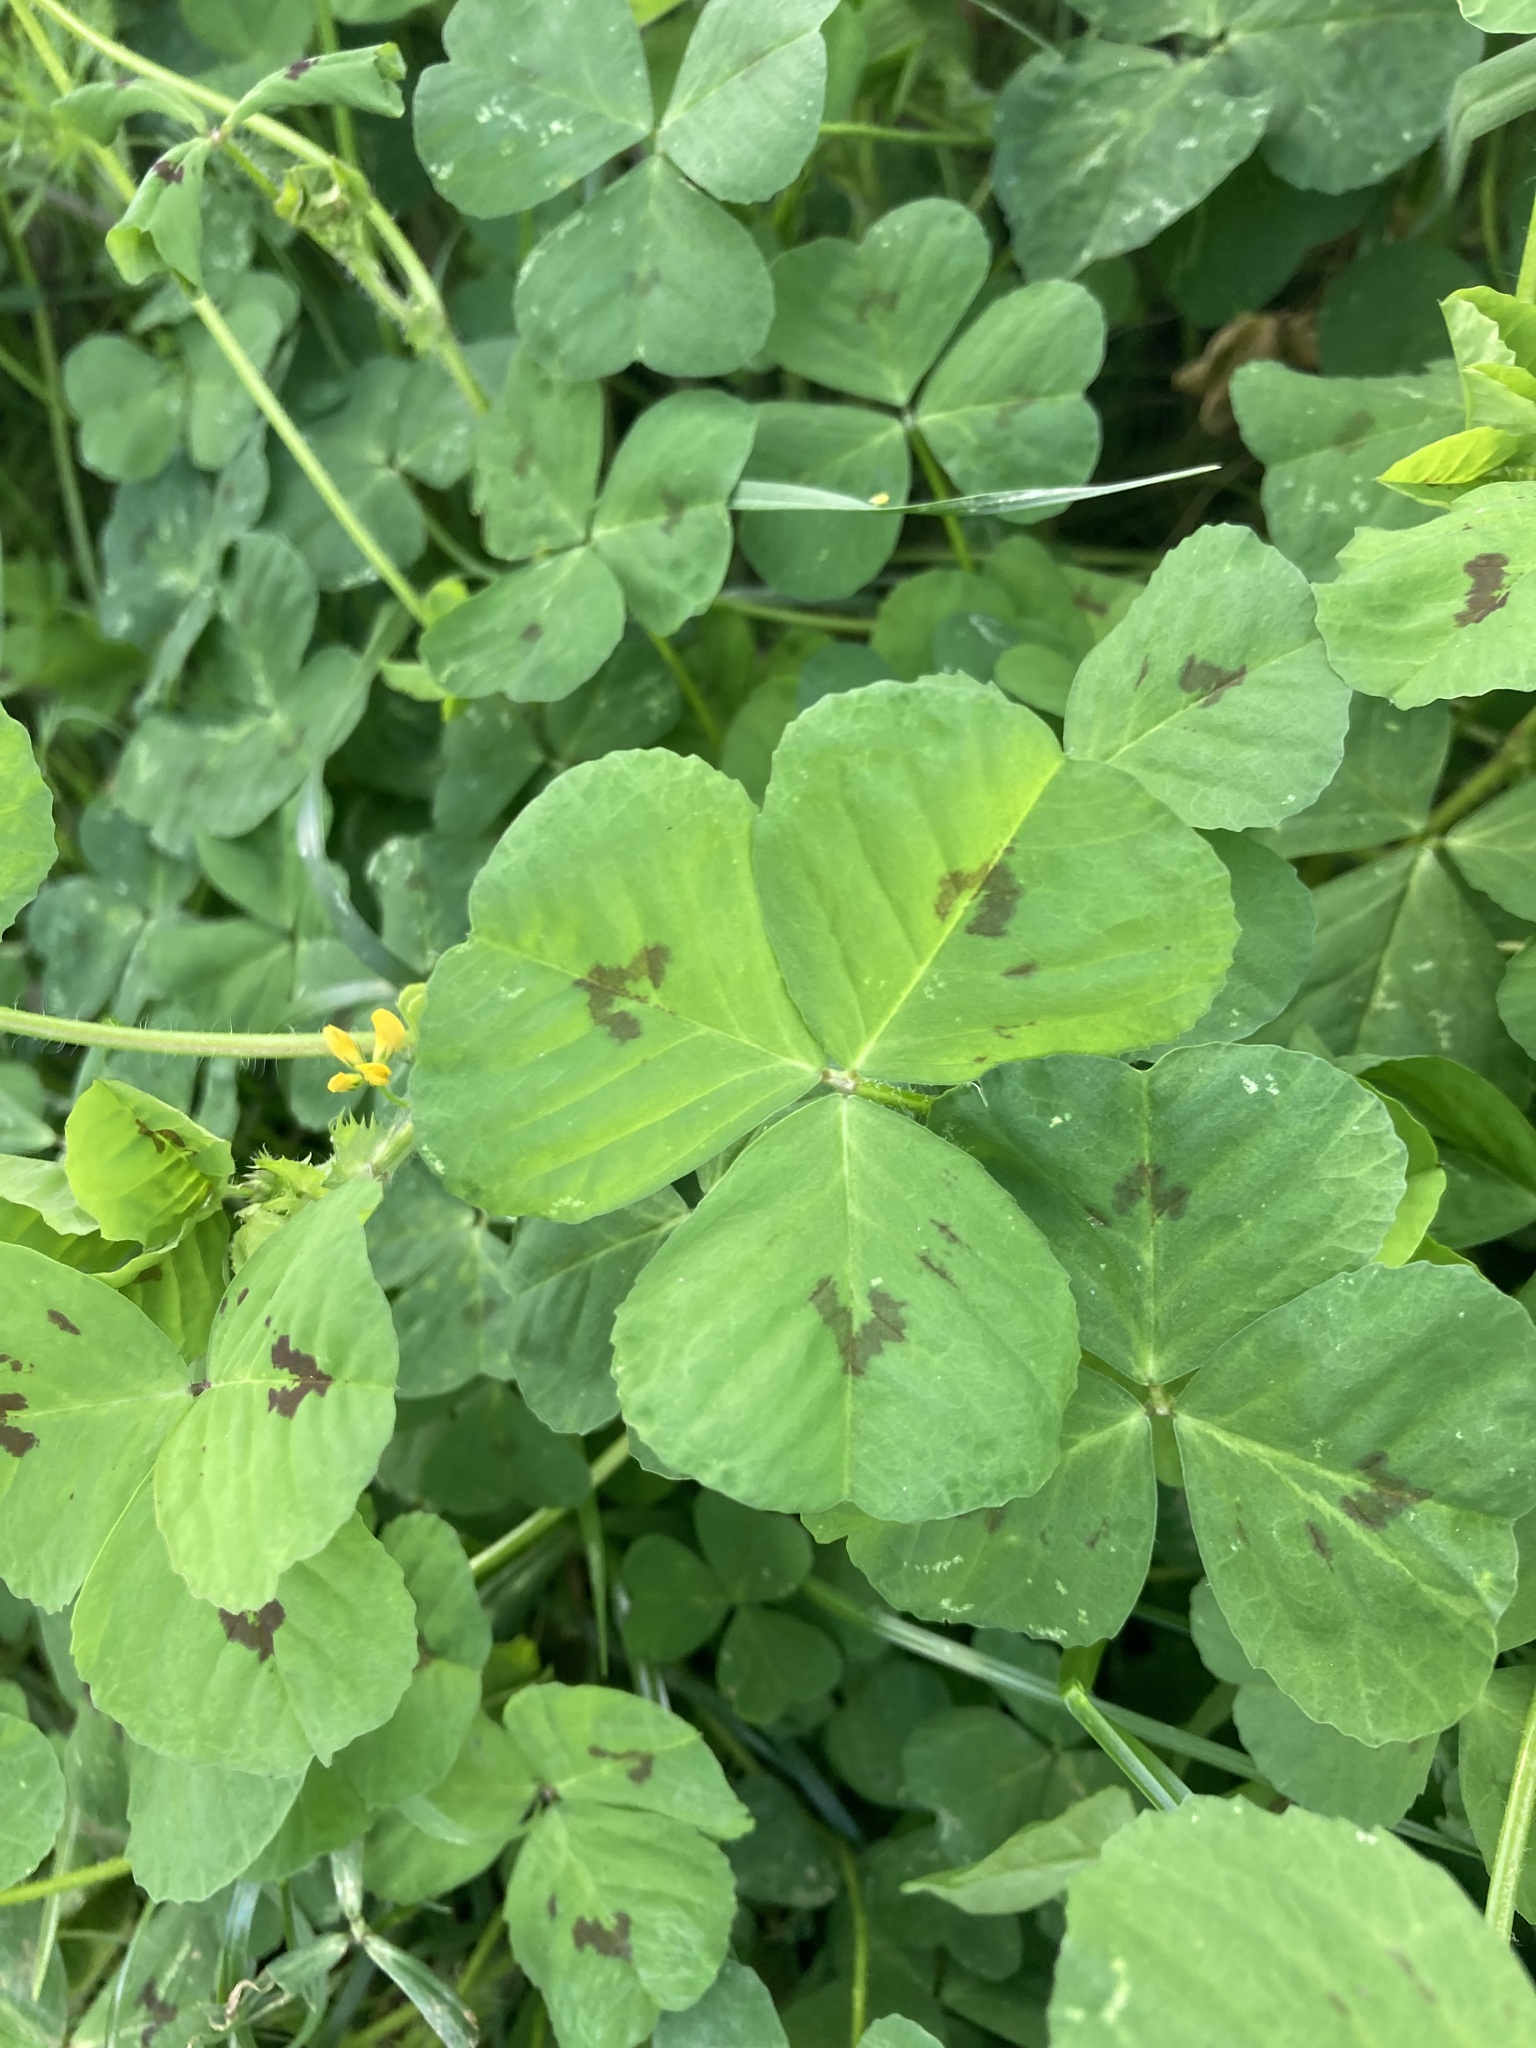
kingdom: Plantae
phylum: Tracheophyta
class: Magnoliopsida
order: Fabales
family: Fabaceae
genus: Medicago
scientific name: Medicago arabica
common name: Spotted medick
